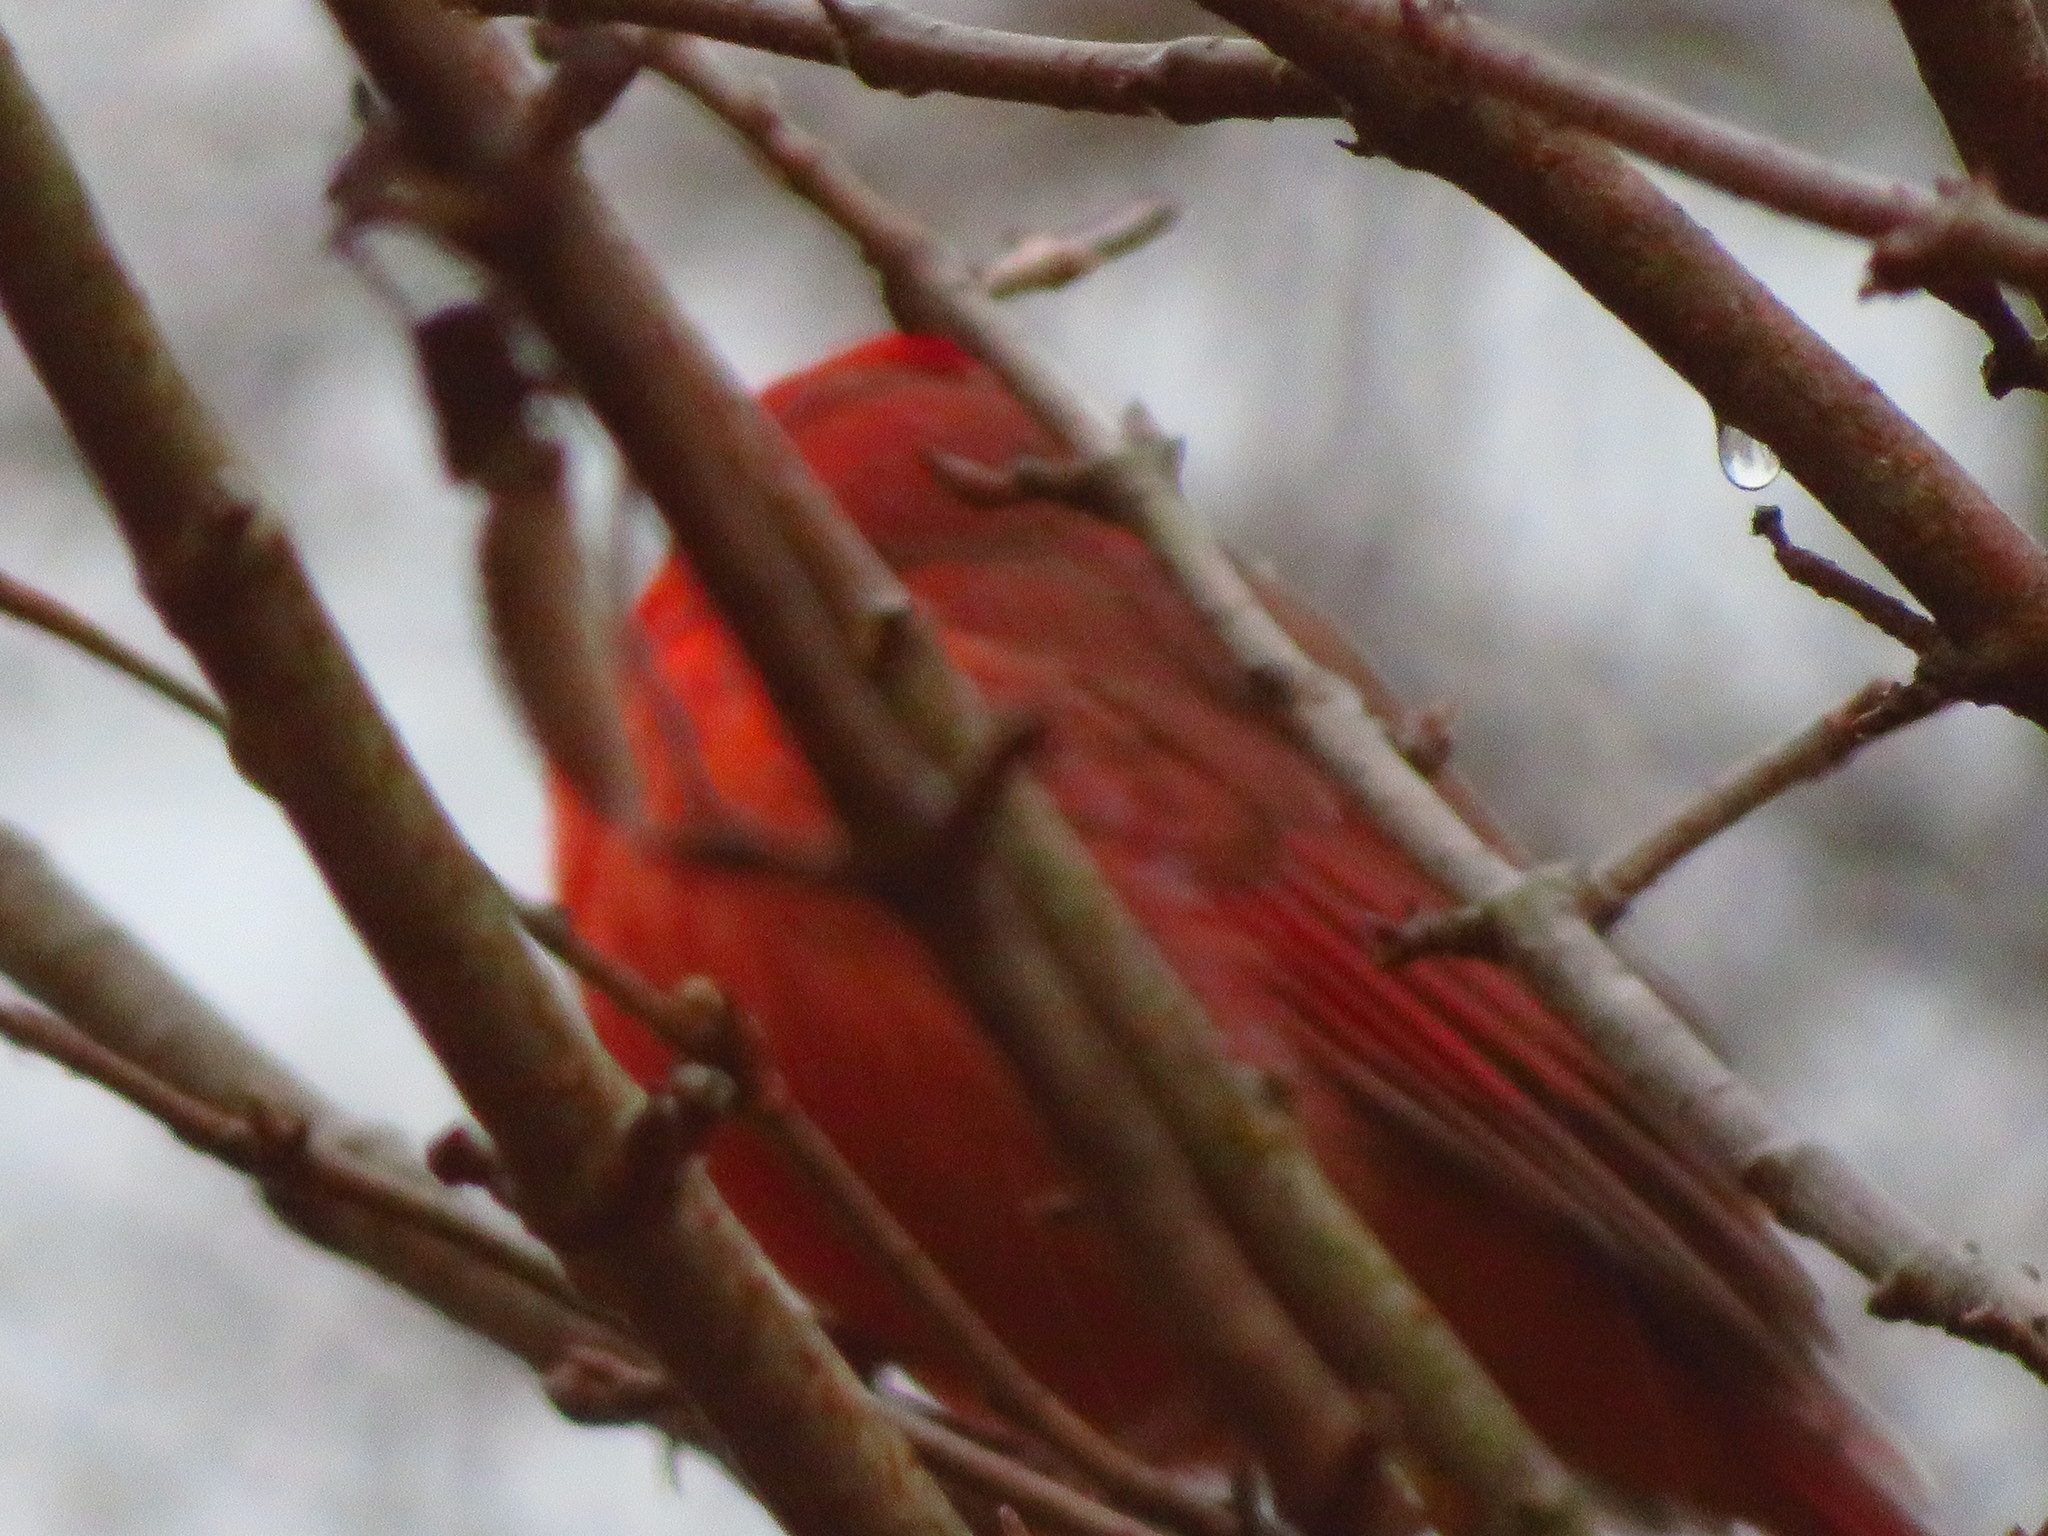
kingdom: Animalia
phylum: Chordata
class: Aves
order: Passeriformes
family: Cardinalidae
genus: Cardinalis
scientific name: Cardinalis cardinalis
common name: Northern cardinal
